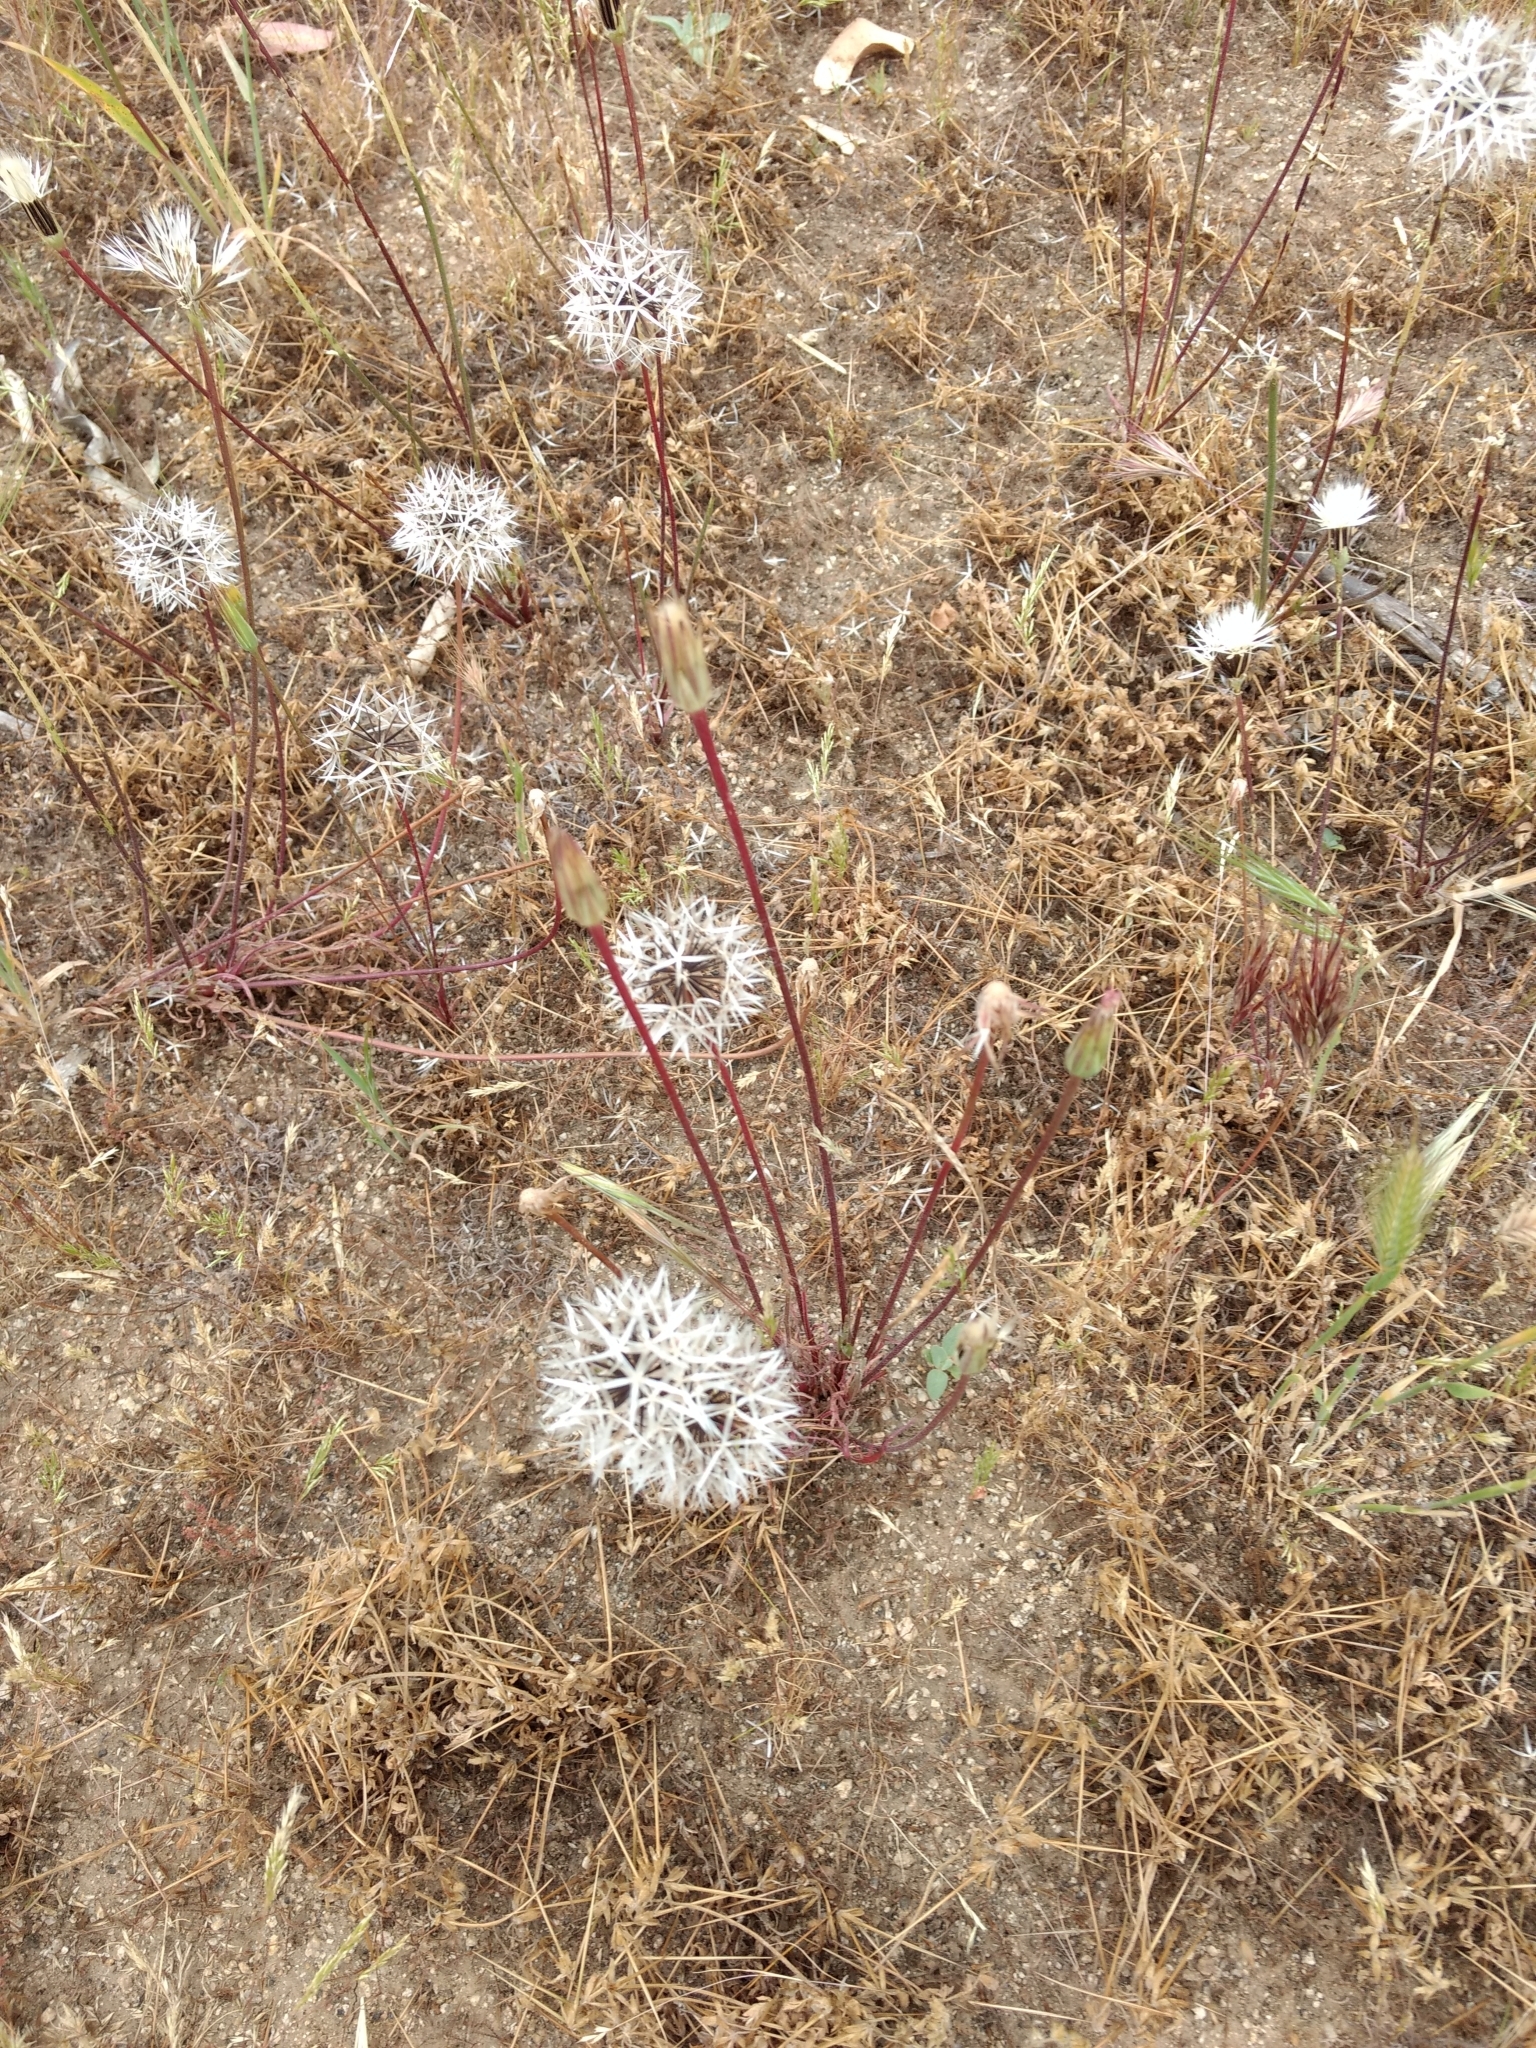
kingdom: Plantae
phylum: Tracheophyta
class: Magnoliopsida
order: Asterales
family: Asteraceae
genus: Microseris
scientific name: Microseris lindleyi
